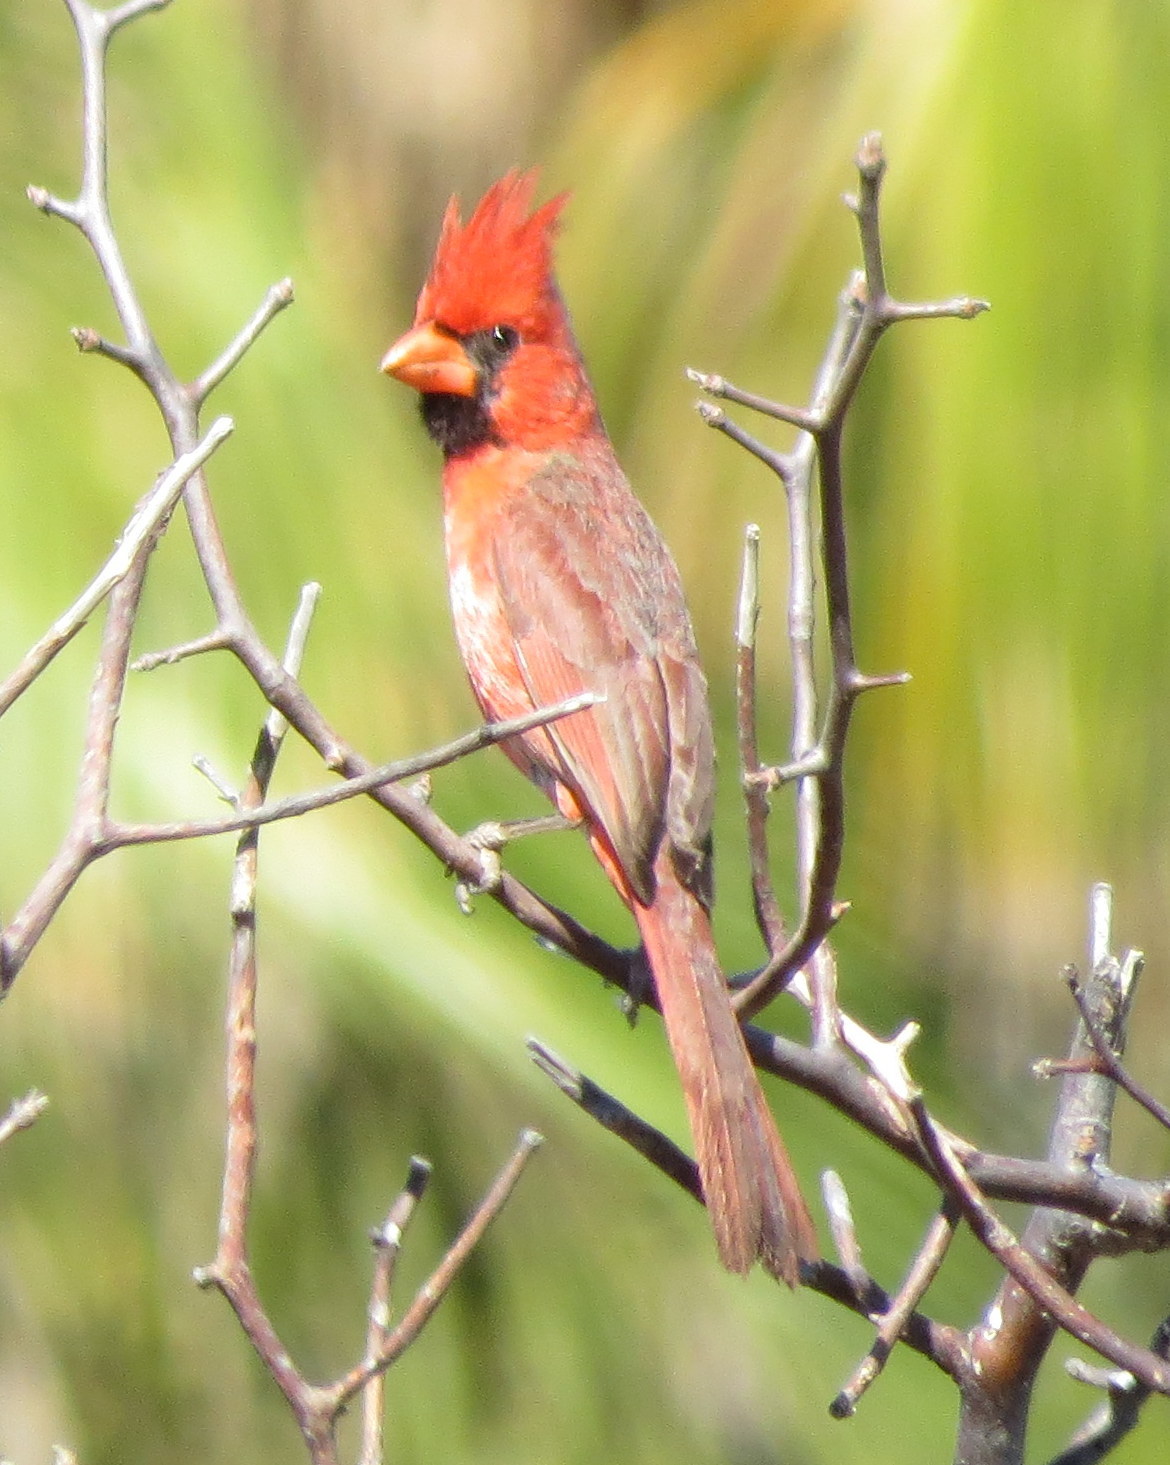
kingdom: Animalia
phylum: Chordata
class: Aves
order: Passeriformes
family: Cardinalidae
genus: Cardinalis
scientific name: Cardinalis cardinalis
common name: Northern cardinal
